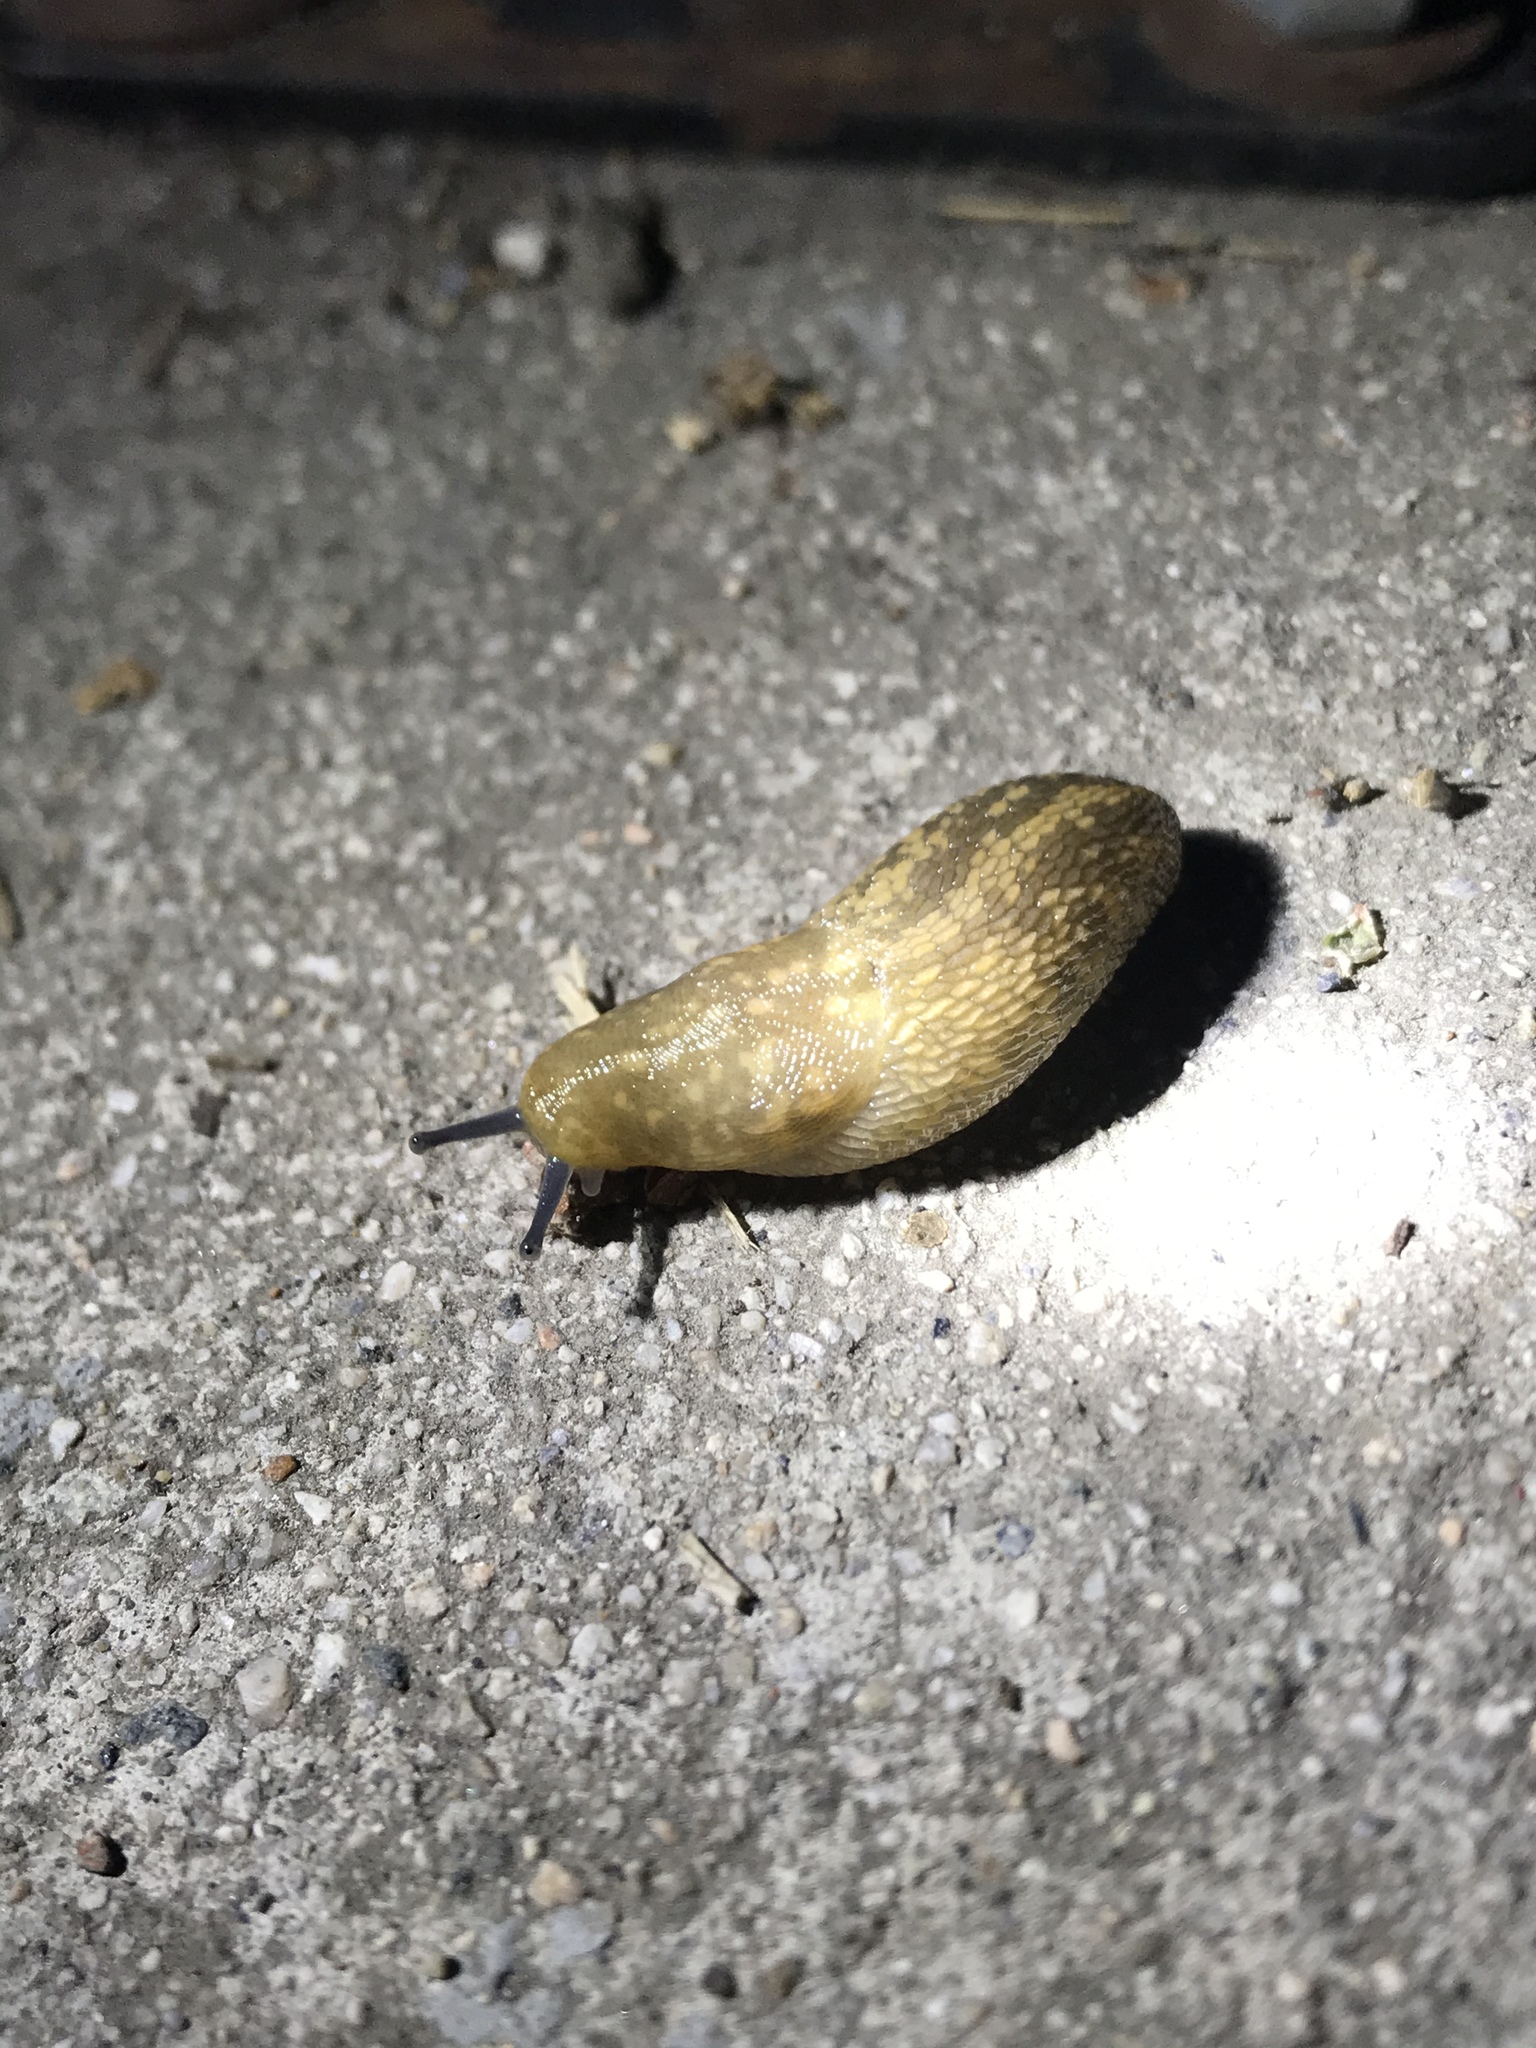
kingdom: Animalia
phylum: Mollusca
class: Gastropoda
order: Stylommatophora
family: Limacidae
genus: Limacus
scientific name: Limacus flavus
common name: Yellow gardenslug
